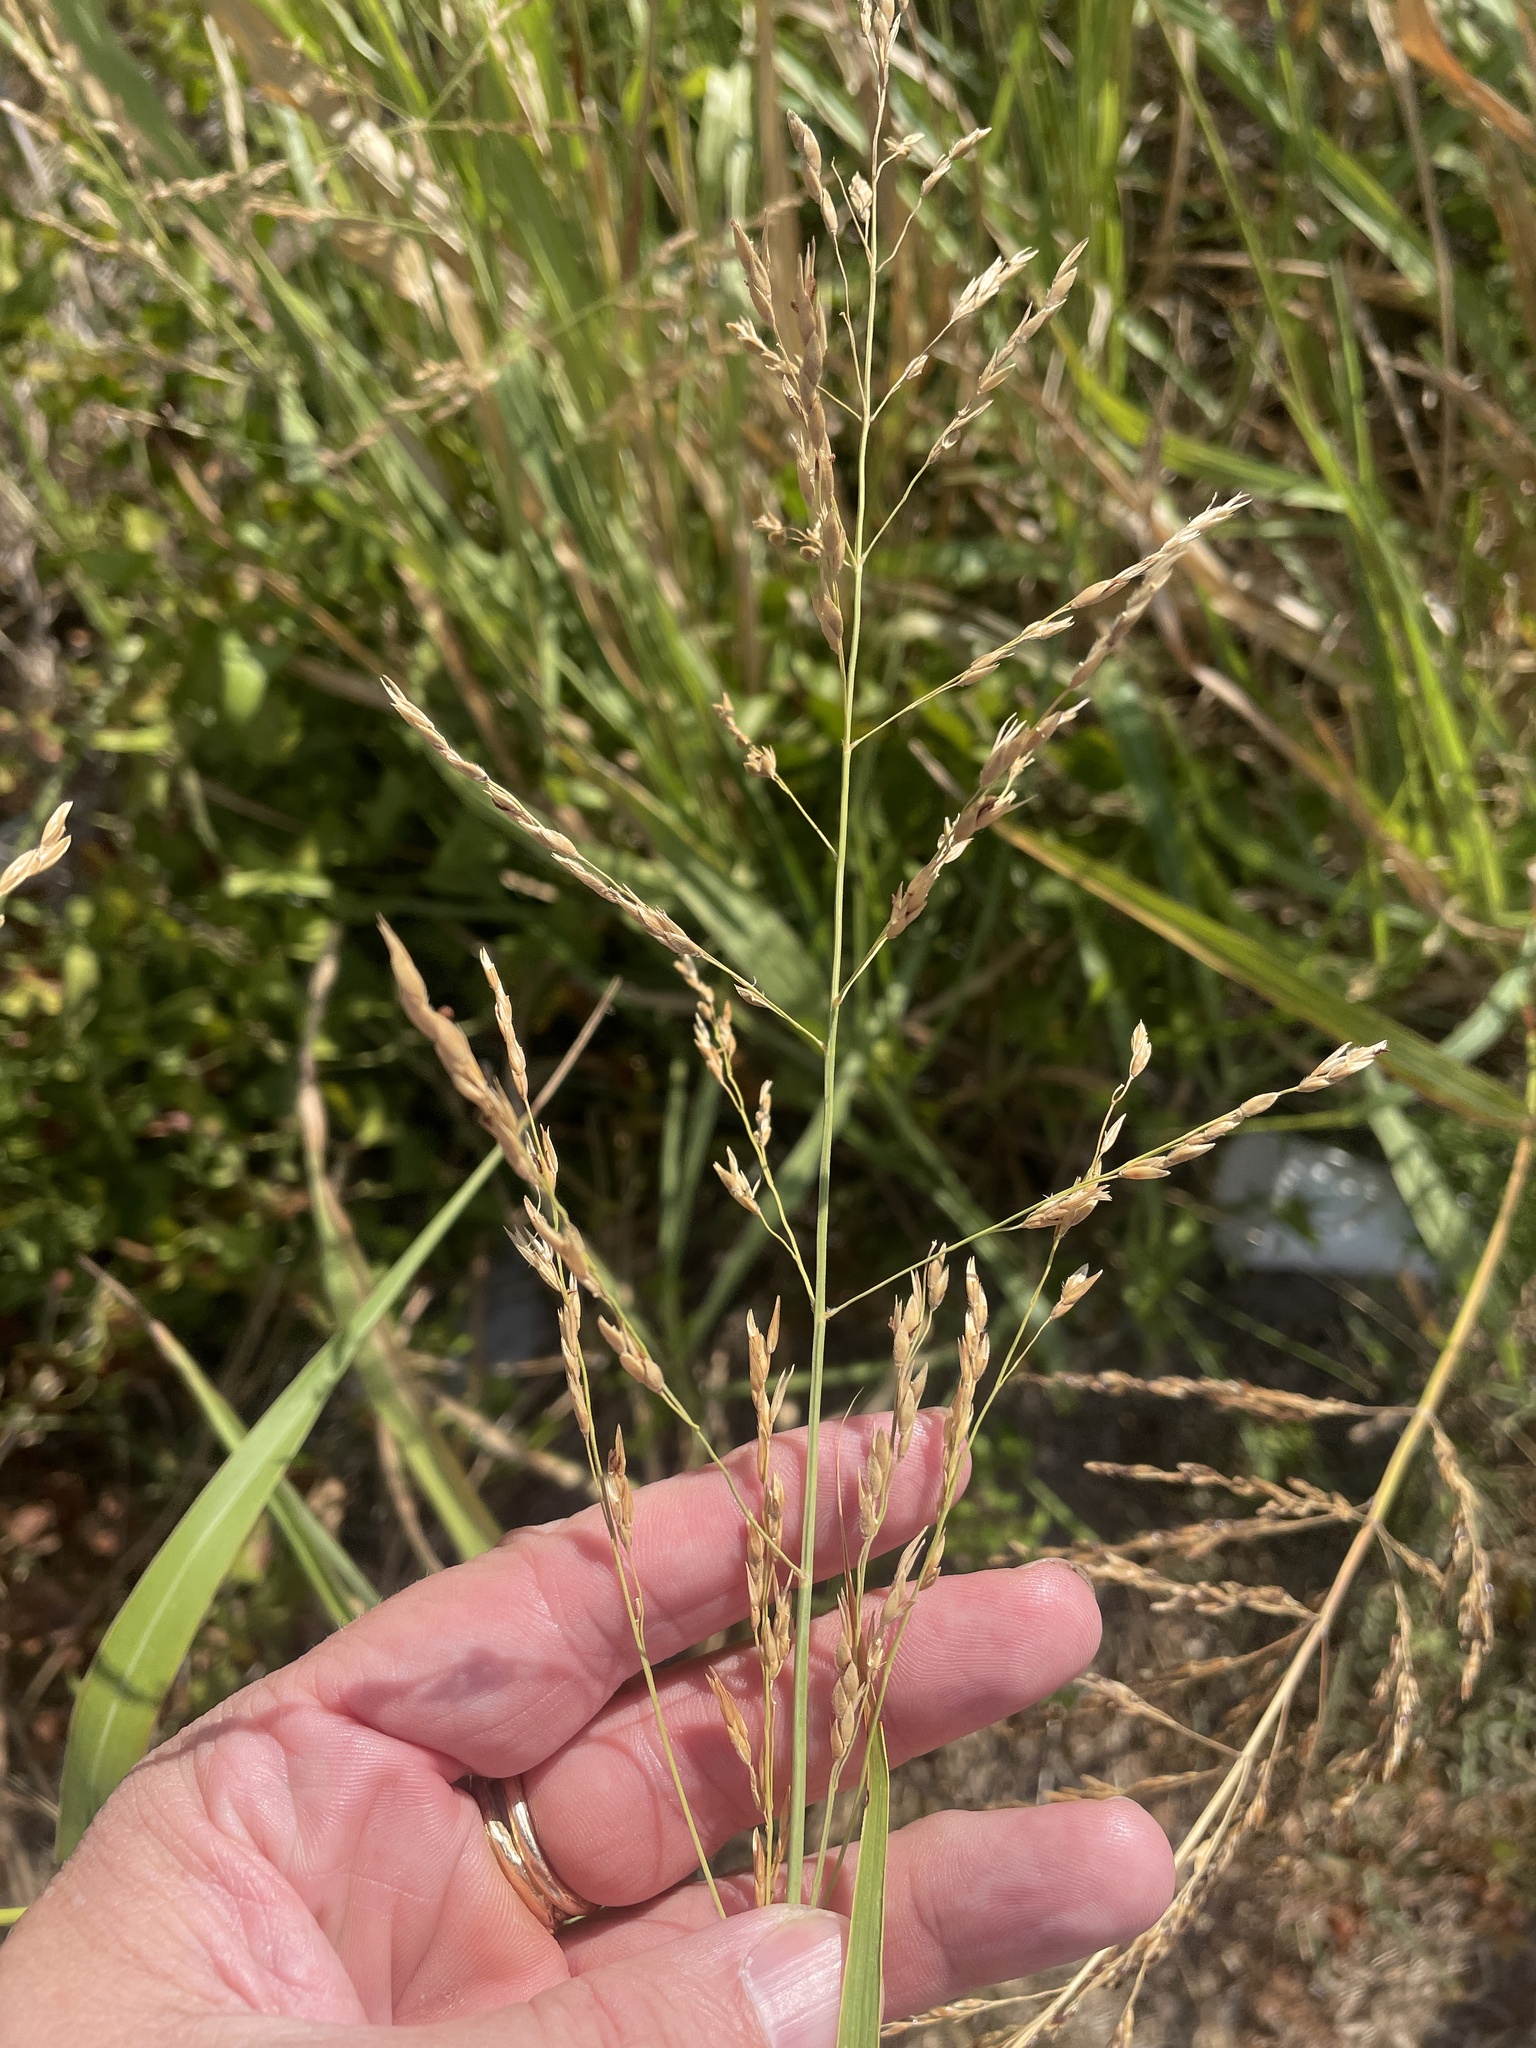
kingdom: Plantae
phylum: Tracheophyta
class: Liliopsida
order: Poales
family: Poaceae
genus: Sorghum
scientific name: Sorghum halepense
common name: Johnson-grass
